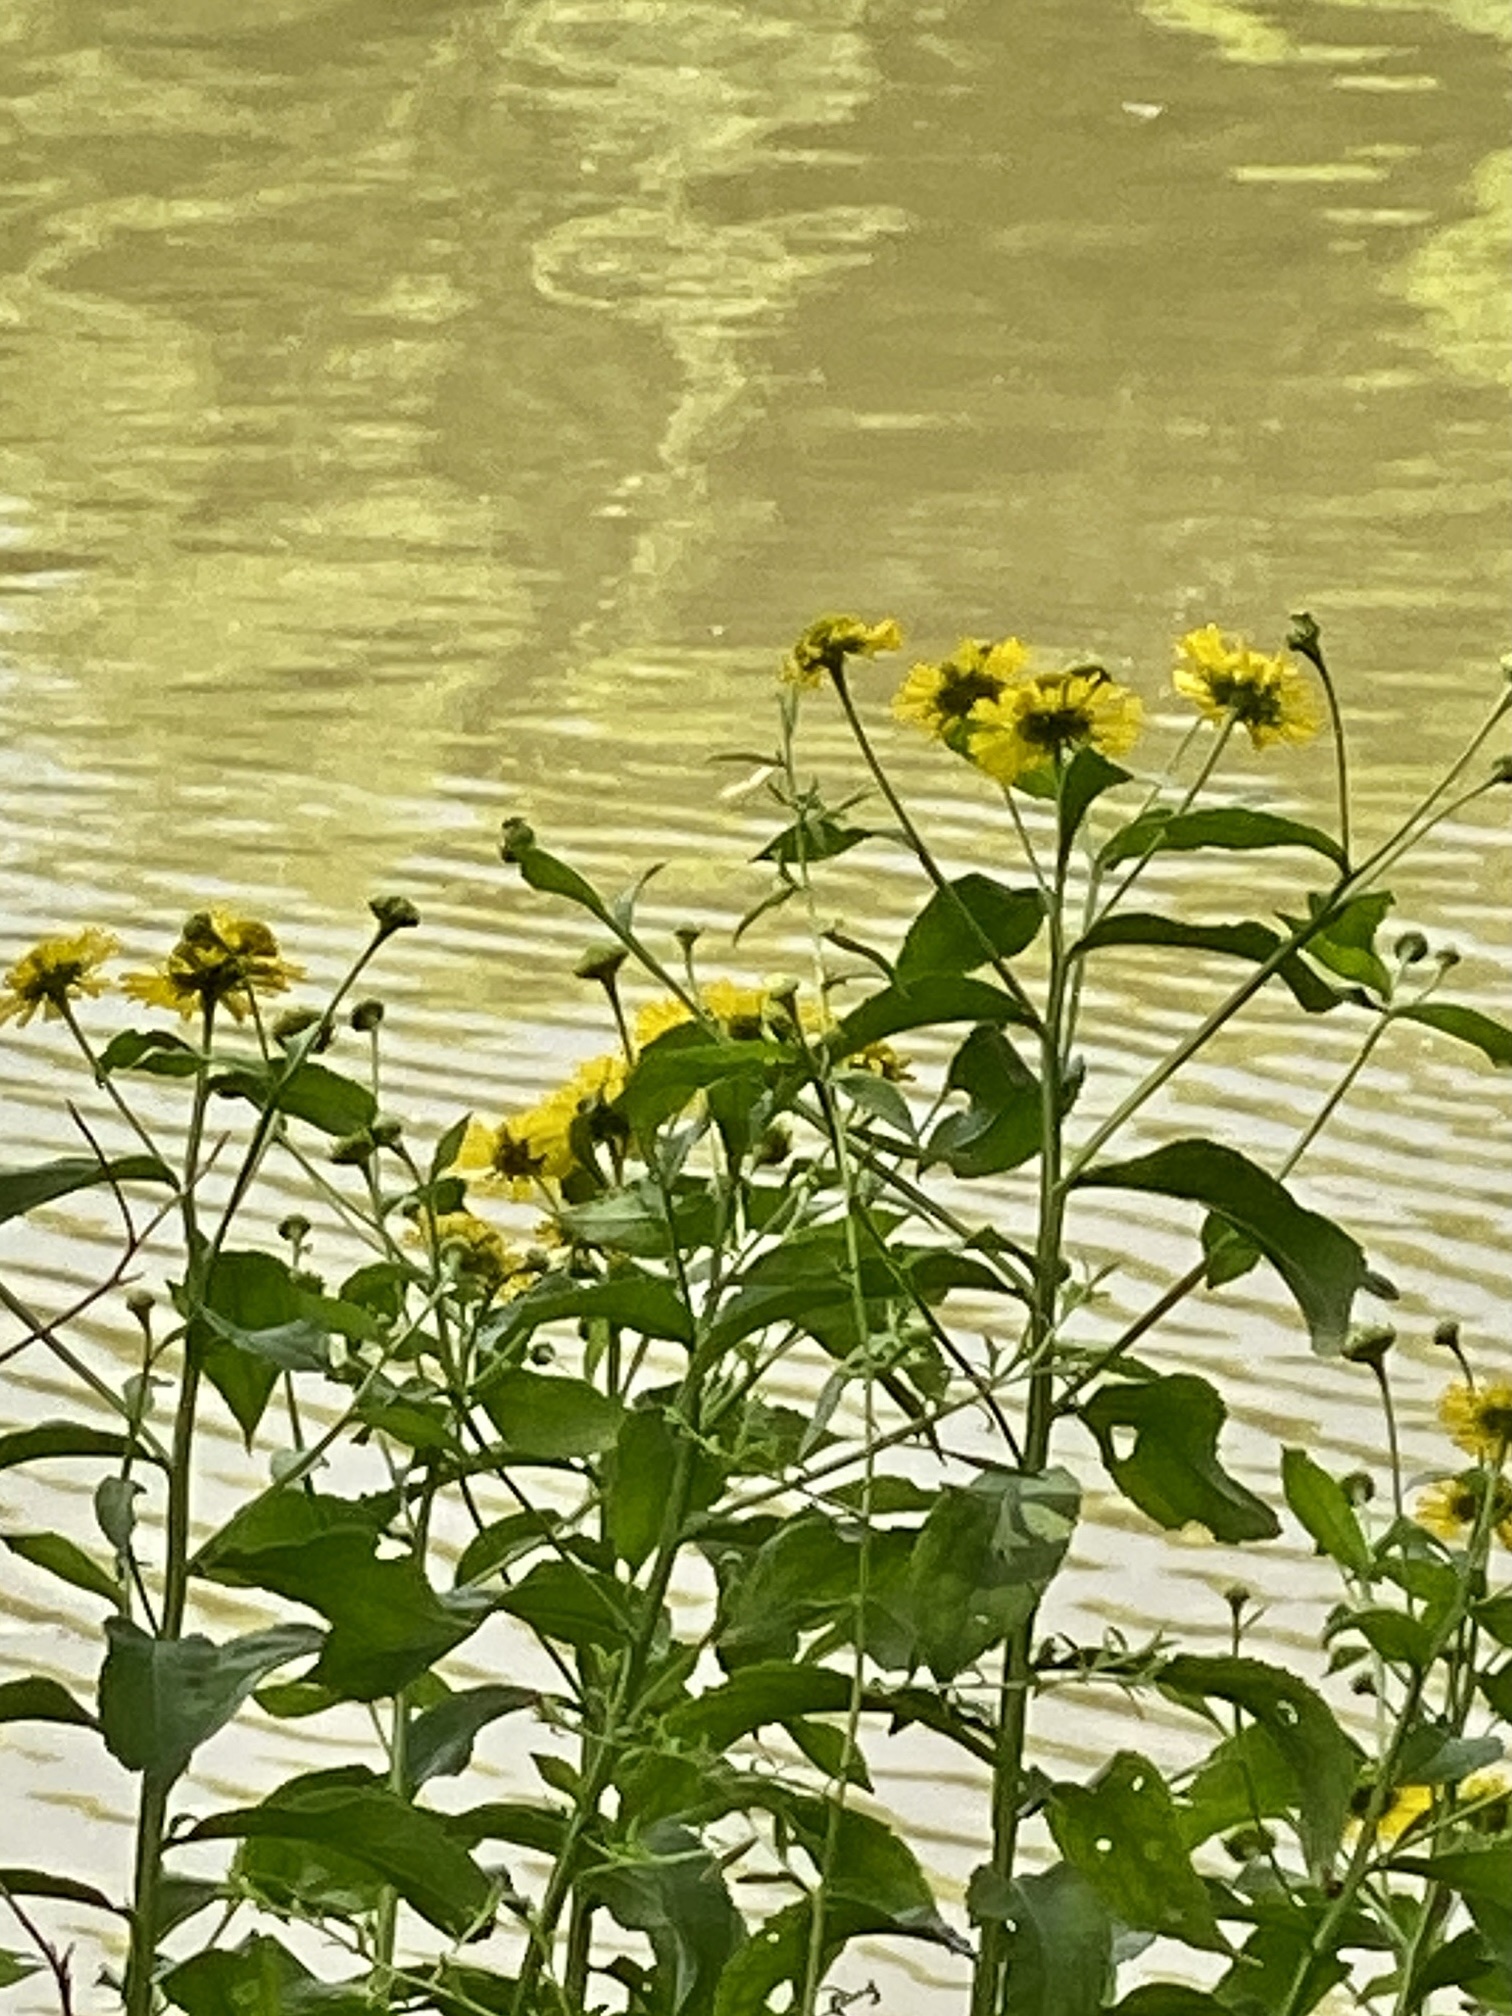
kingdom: Plantae
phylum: Tracheophyta
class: Magnoliopsida
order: Asterales
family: Asteraceae
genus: Helenium
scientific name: Helenium autumnale
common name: Sneezeweed
